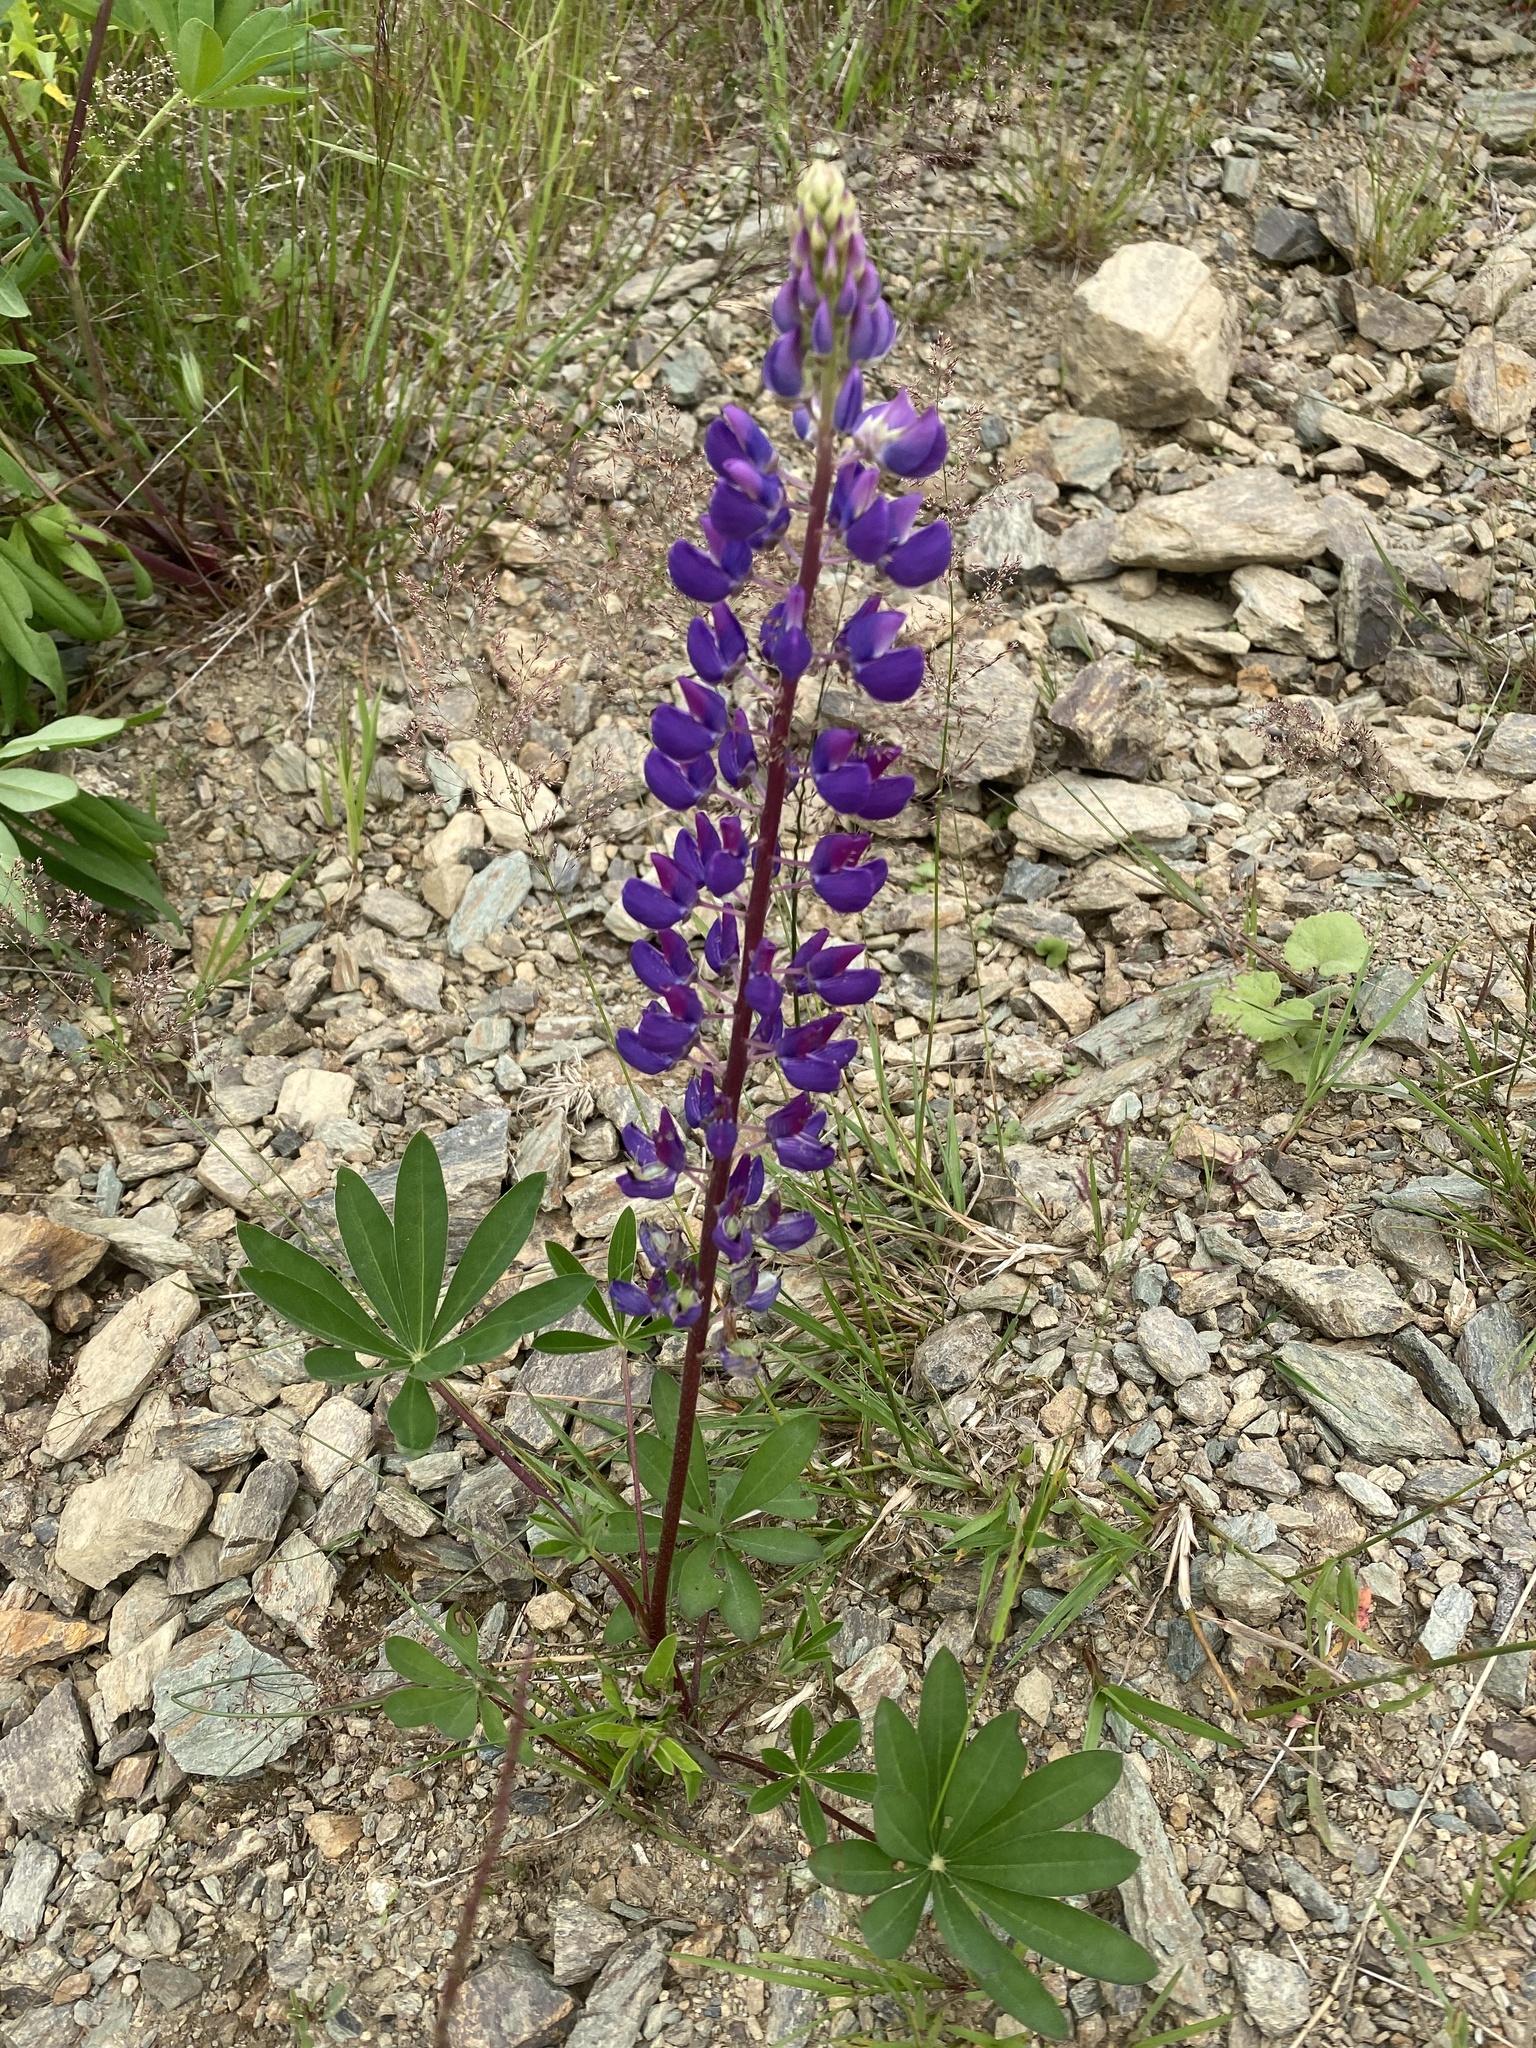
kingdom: Plantae
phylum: Tracheophyta
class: Magnoliopsida
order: Fabales
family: Fabaceae
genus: Lupinus
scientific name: Lupinus polyphyllus
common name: Garden lupin
